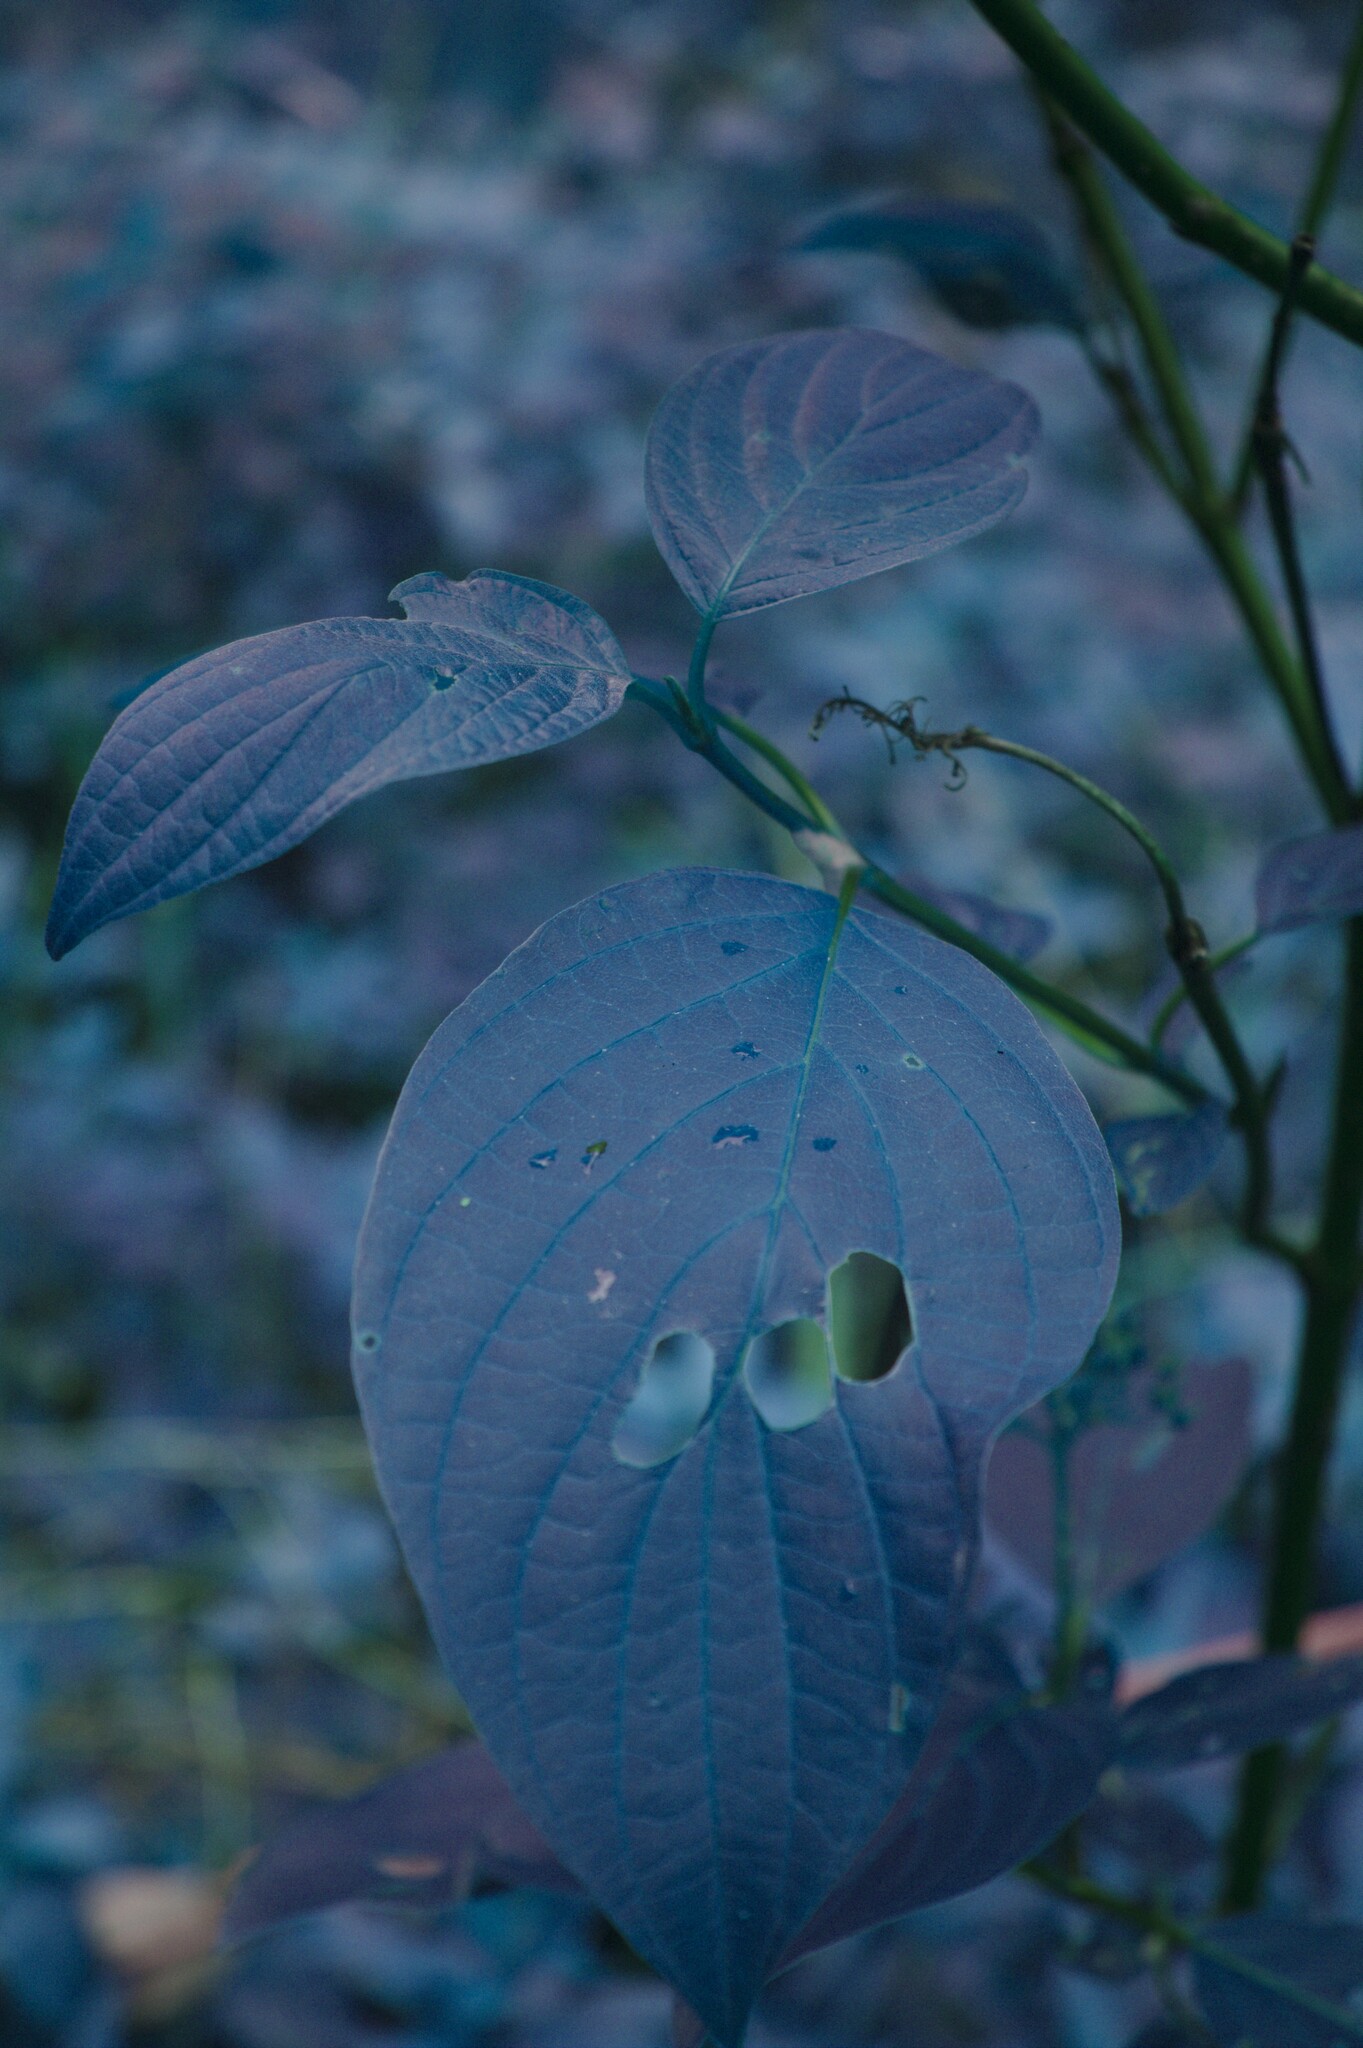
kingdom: Plantae
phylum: Tracheophyta
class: Magnoliopsida
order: Cornales
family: Cornaceae
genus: Cornus
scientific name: Cornus sericea
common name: Red-osier dogwood
